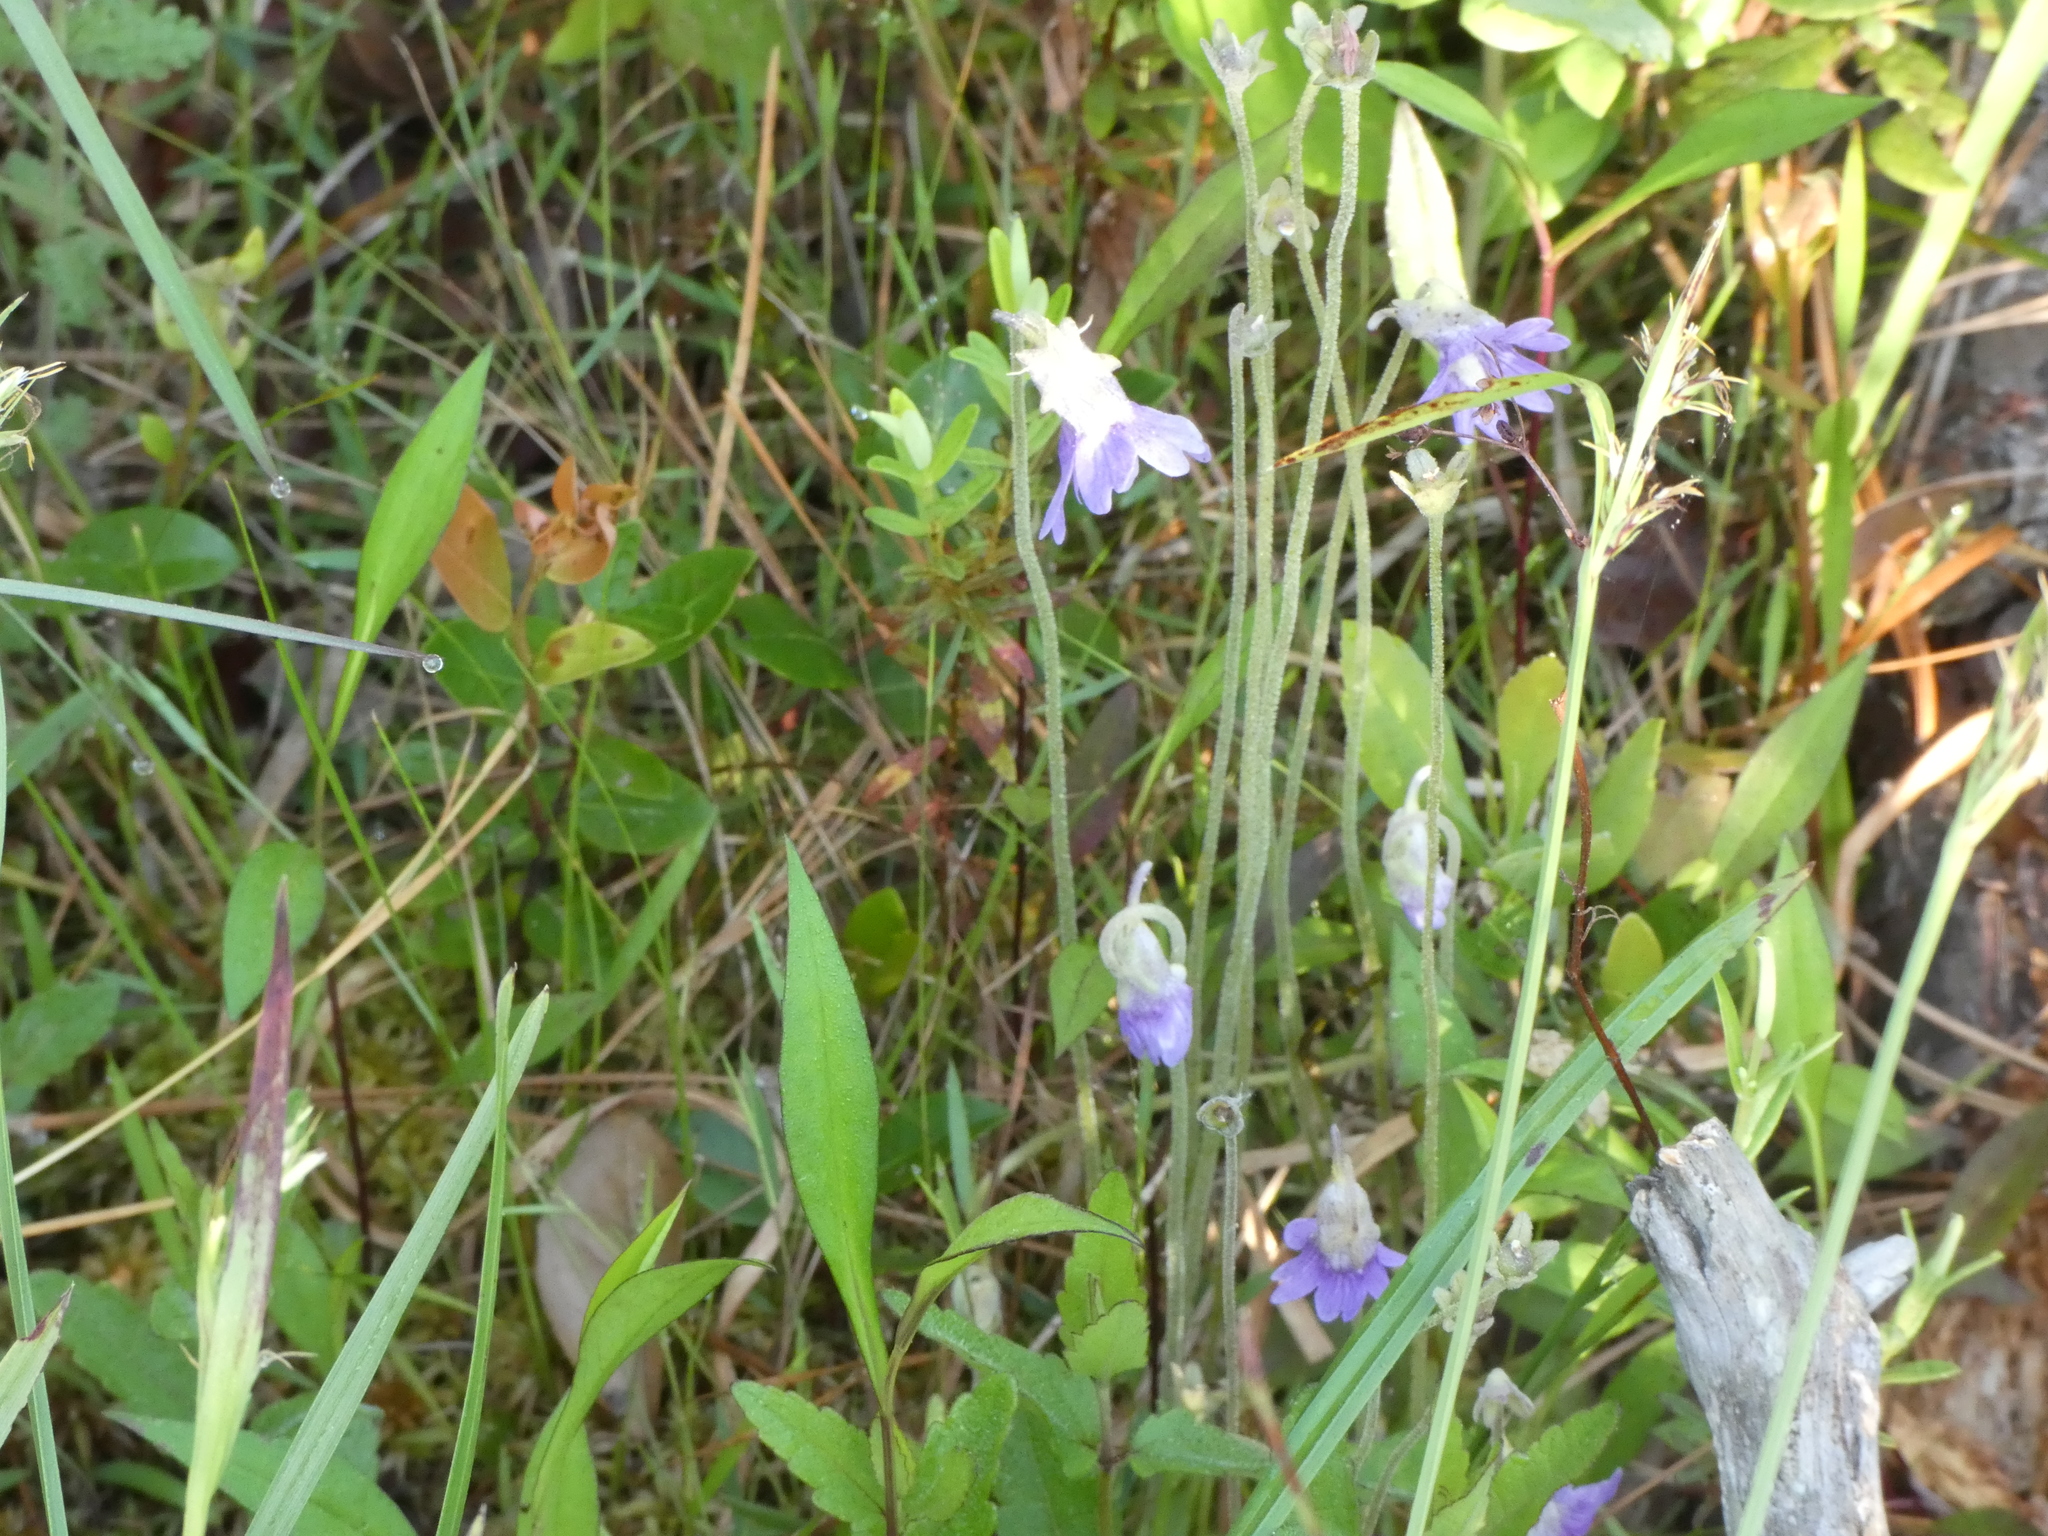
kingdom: Plantae
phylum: Tracheophyta
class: Magnoliopsida
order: Lamiales
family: Lentibulariaceae
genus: Pinguicula
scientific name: Pinguicula caerulea
